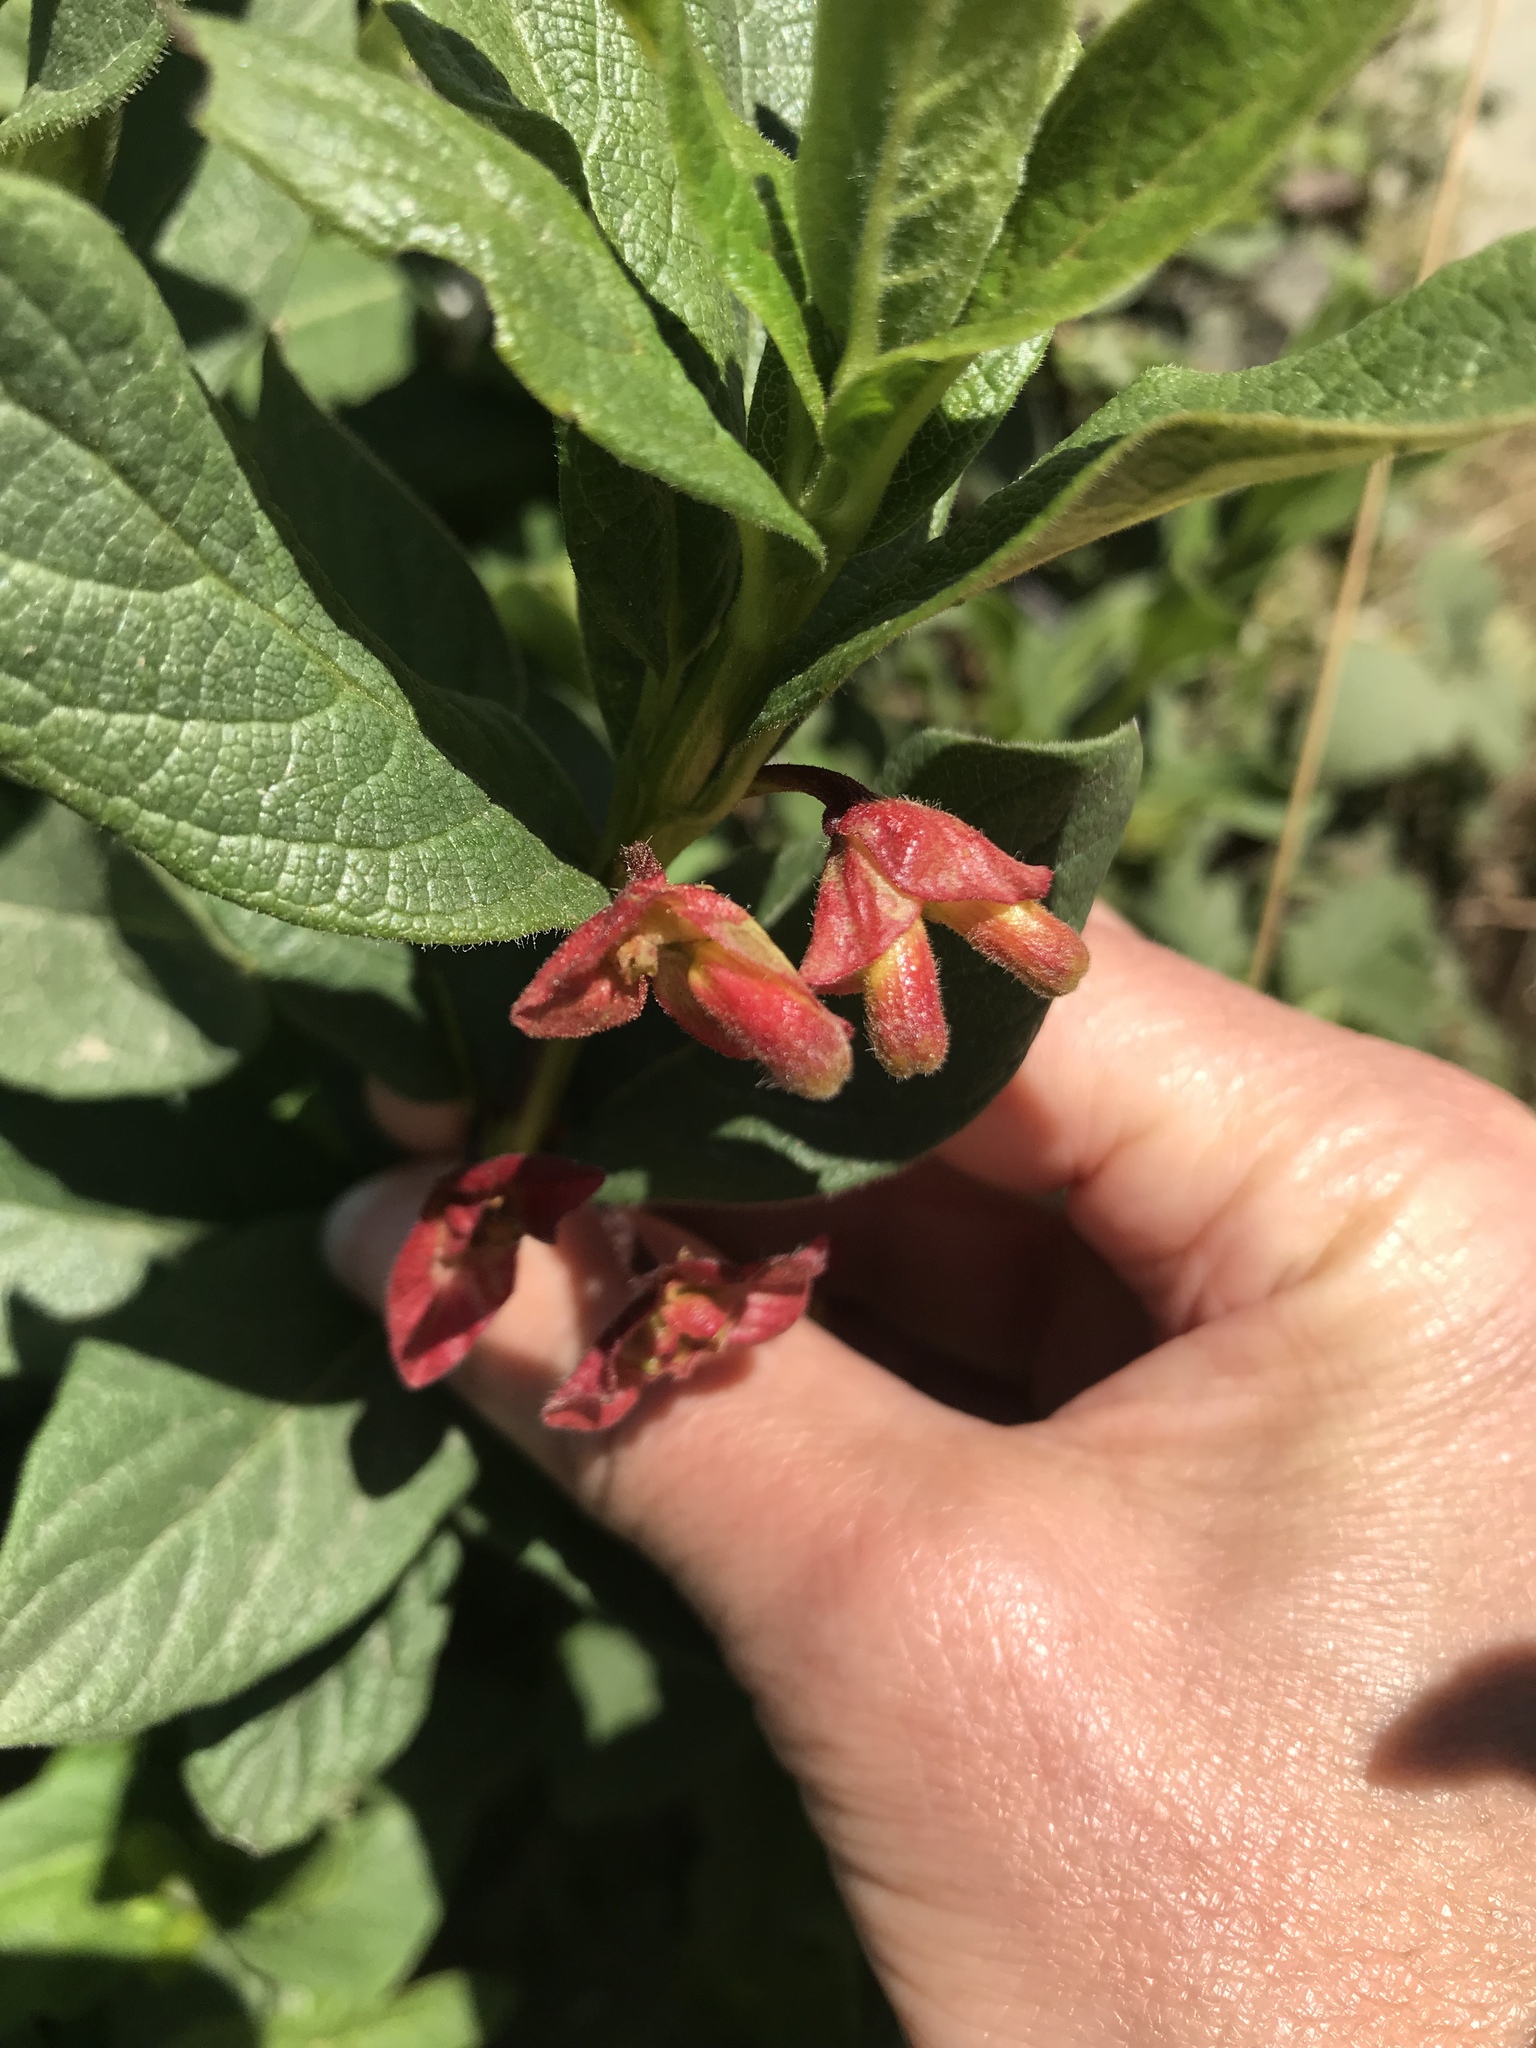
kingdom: Plantae
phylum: Tracheophyta
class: Magnoliopsida
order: Dipsacales
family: Caprifoliaceae
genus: Lonicera
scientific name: Lonicera involucrata
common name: Californian honeysuckle
